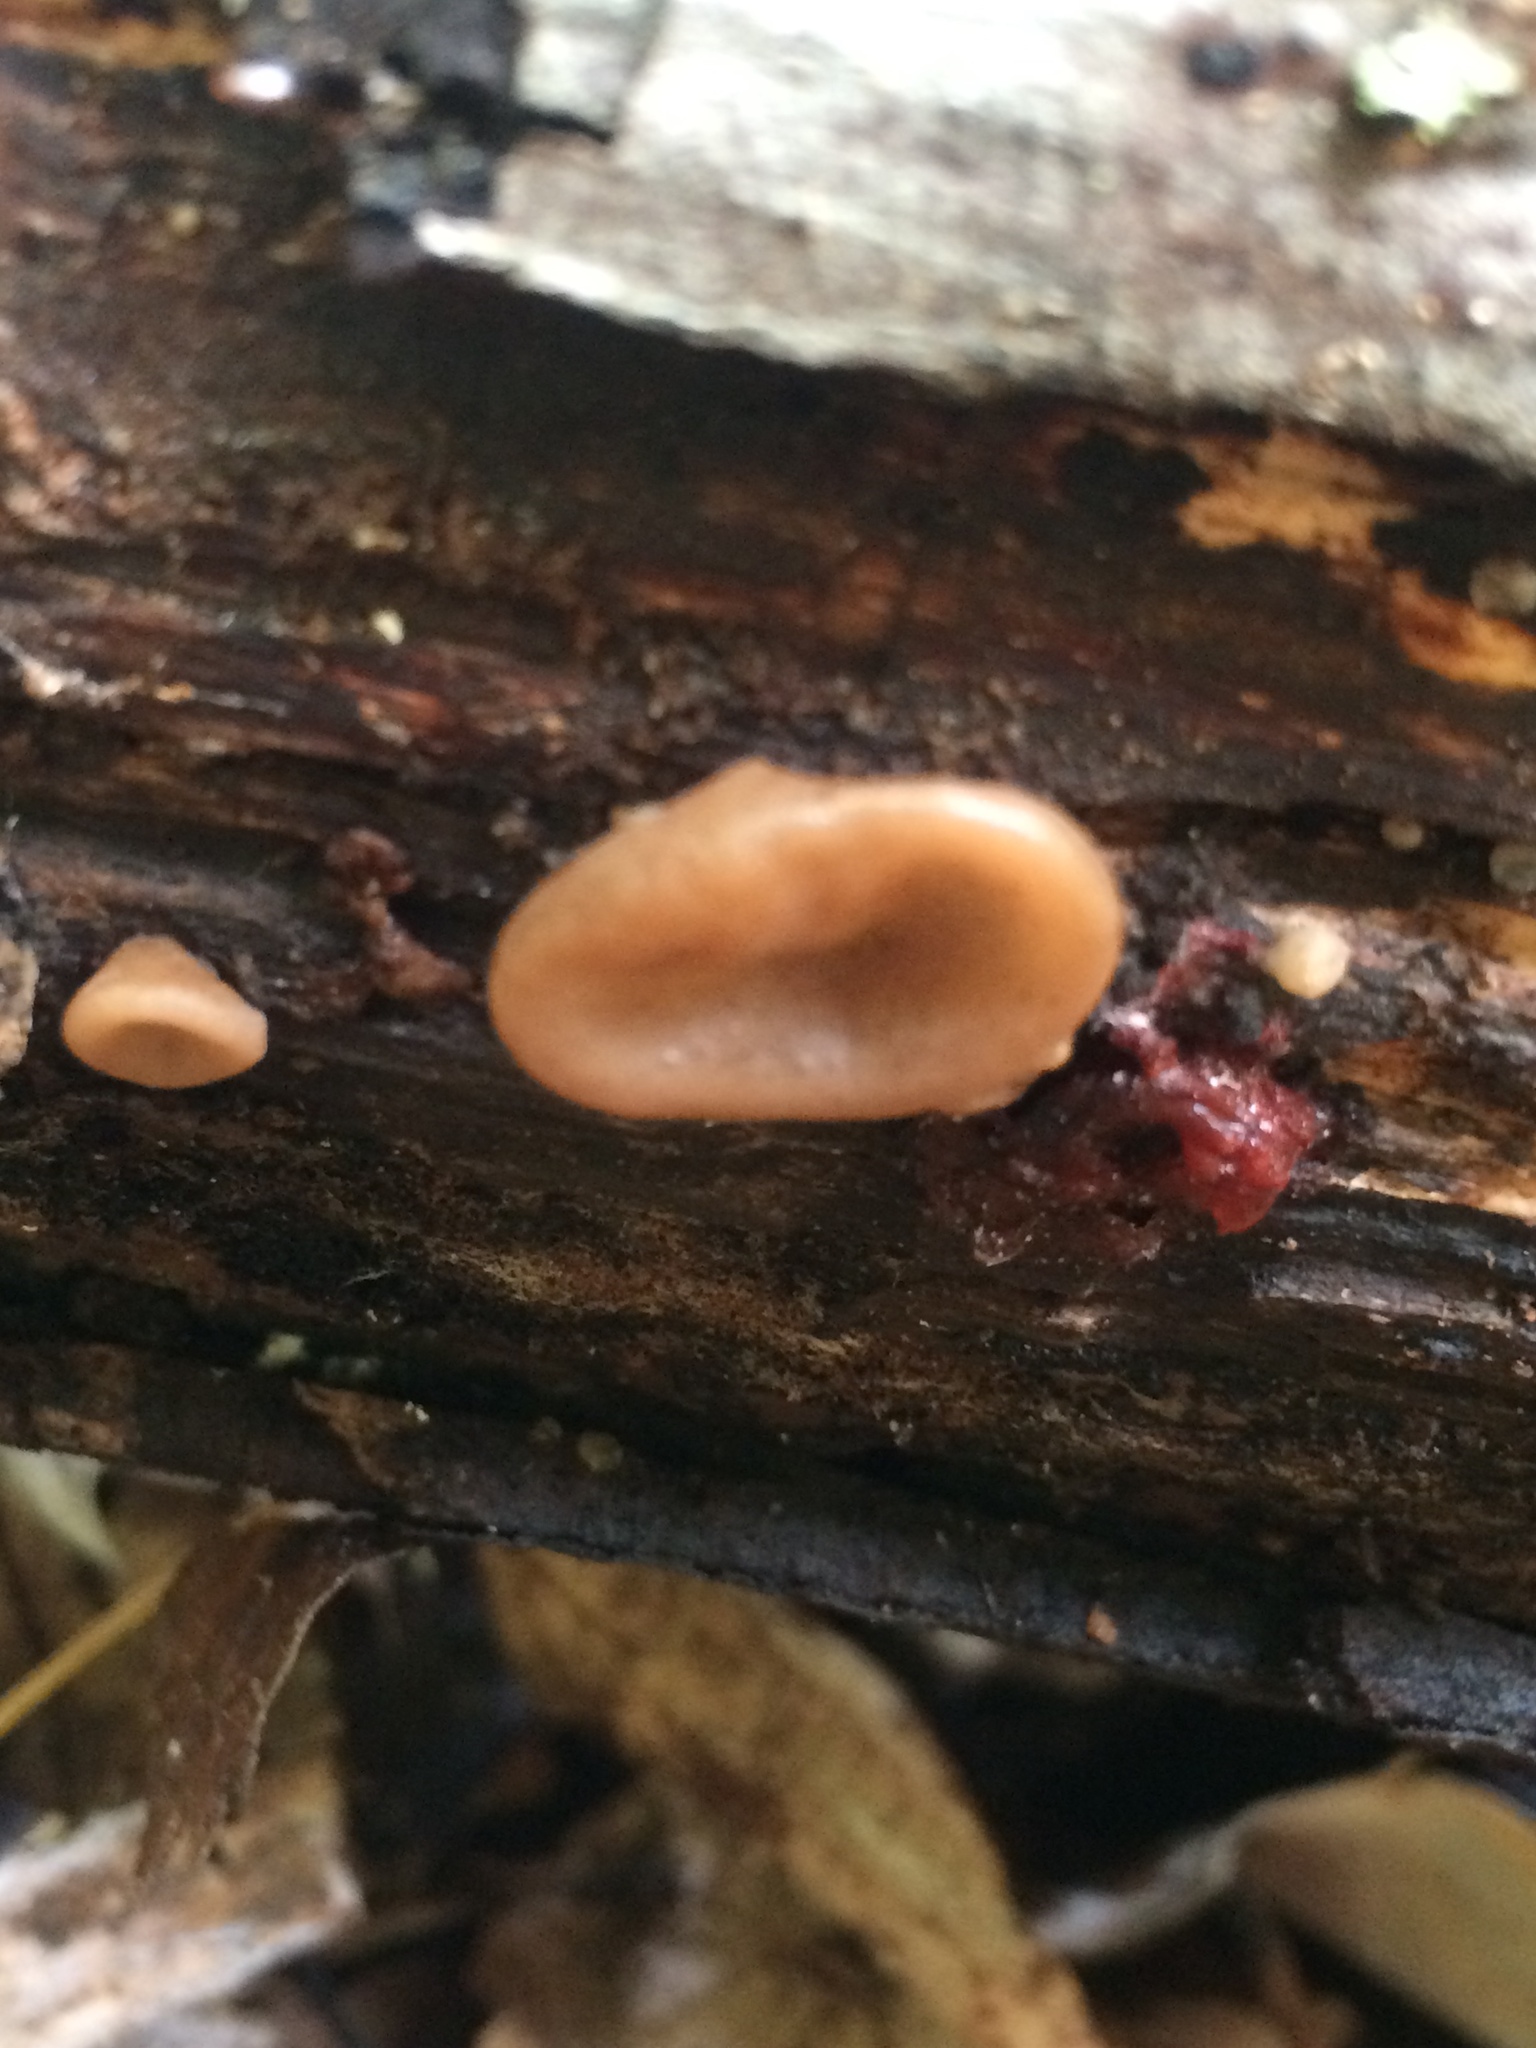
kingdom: Fungi
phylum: Basidiomycota
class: Agaricomycetes
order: Auriculariales
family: Auriculariaceae
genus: Auricularia
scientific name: Auricularia angiospermarum
